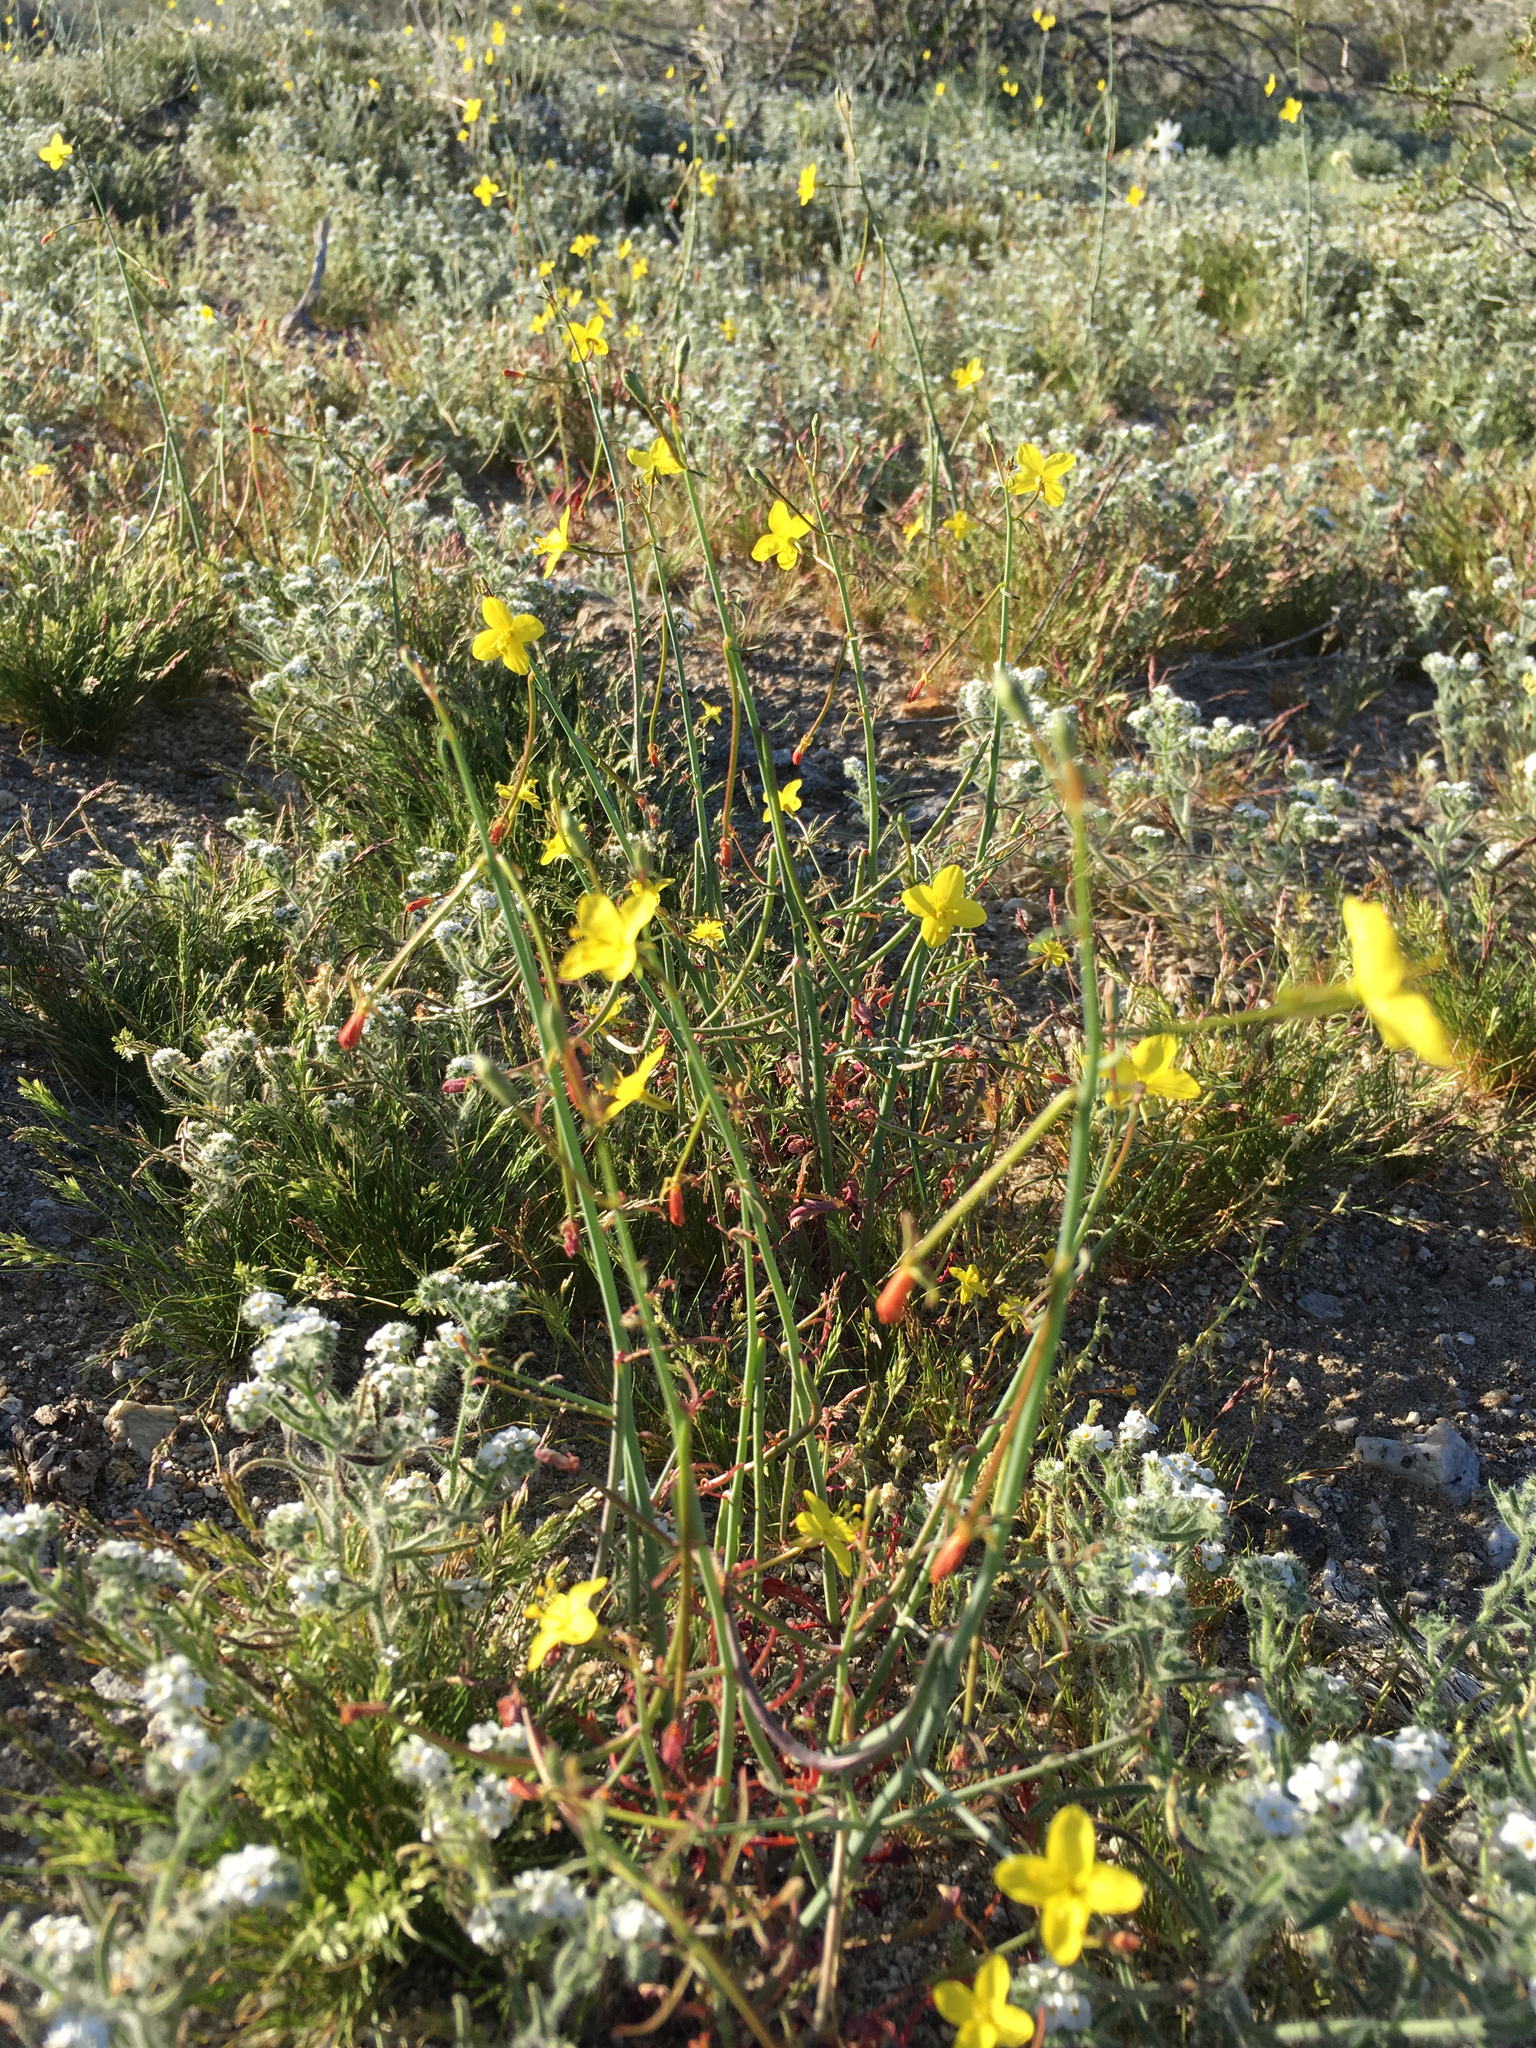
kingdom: Plantae
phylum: Tracheophyta
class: Magnoliopsida
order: Myrtales
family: Onagraceae
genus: Eulobus
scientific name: Eulobus californicus
